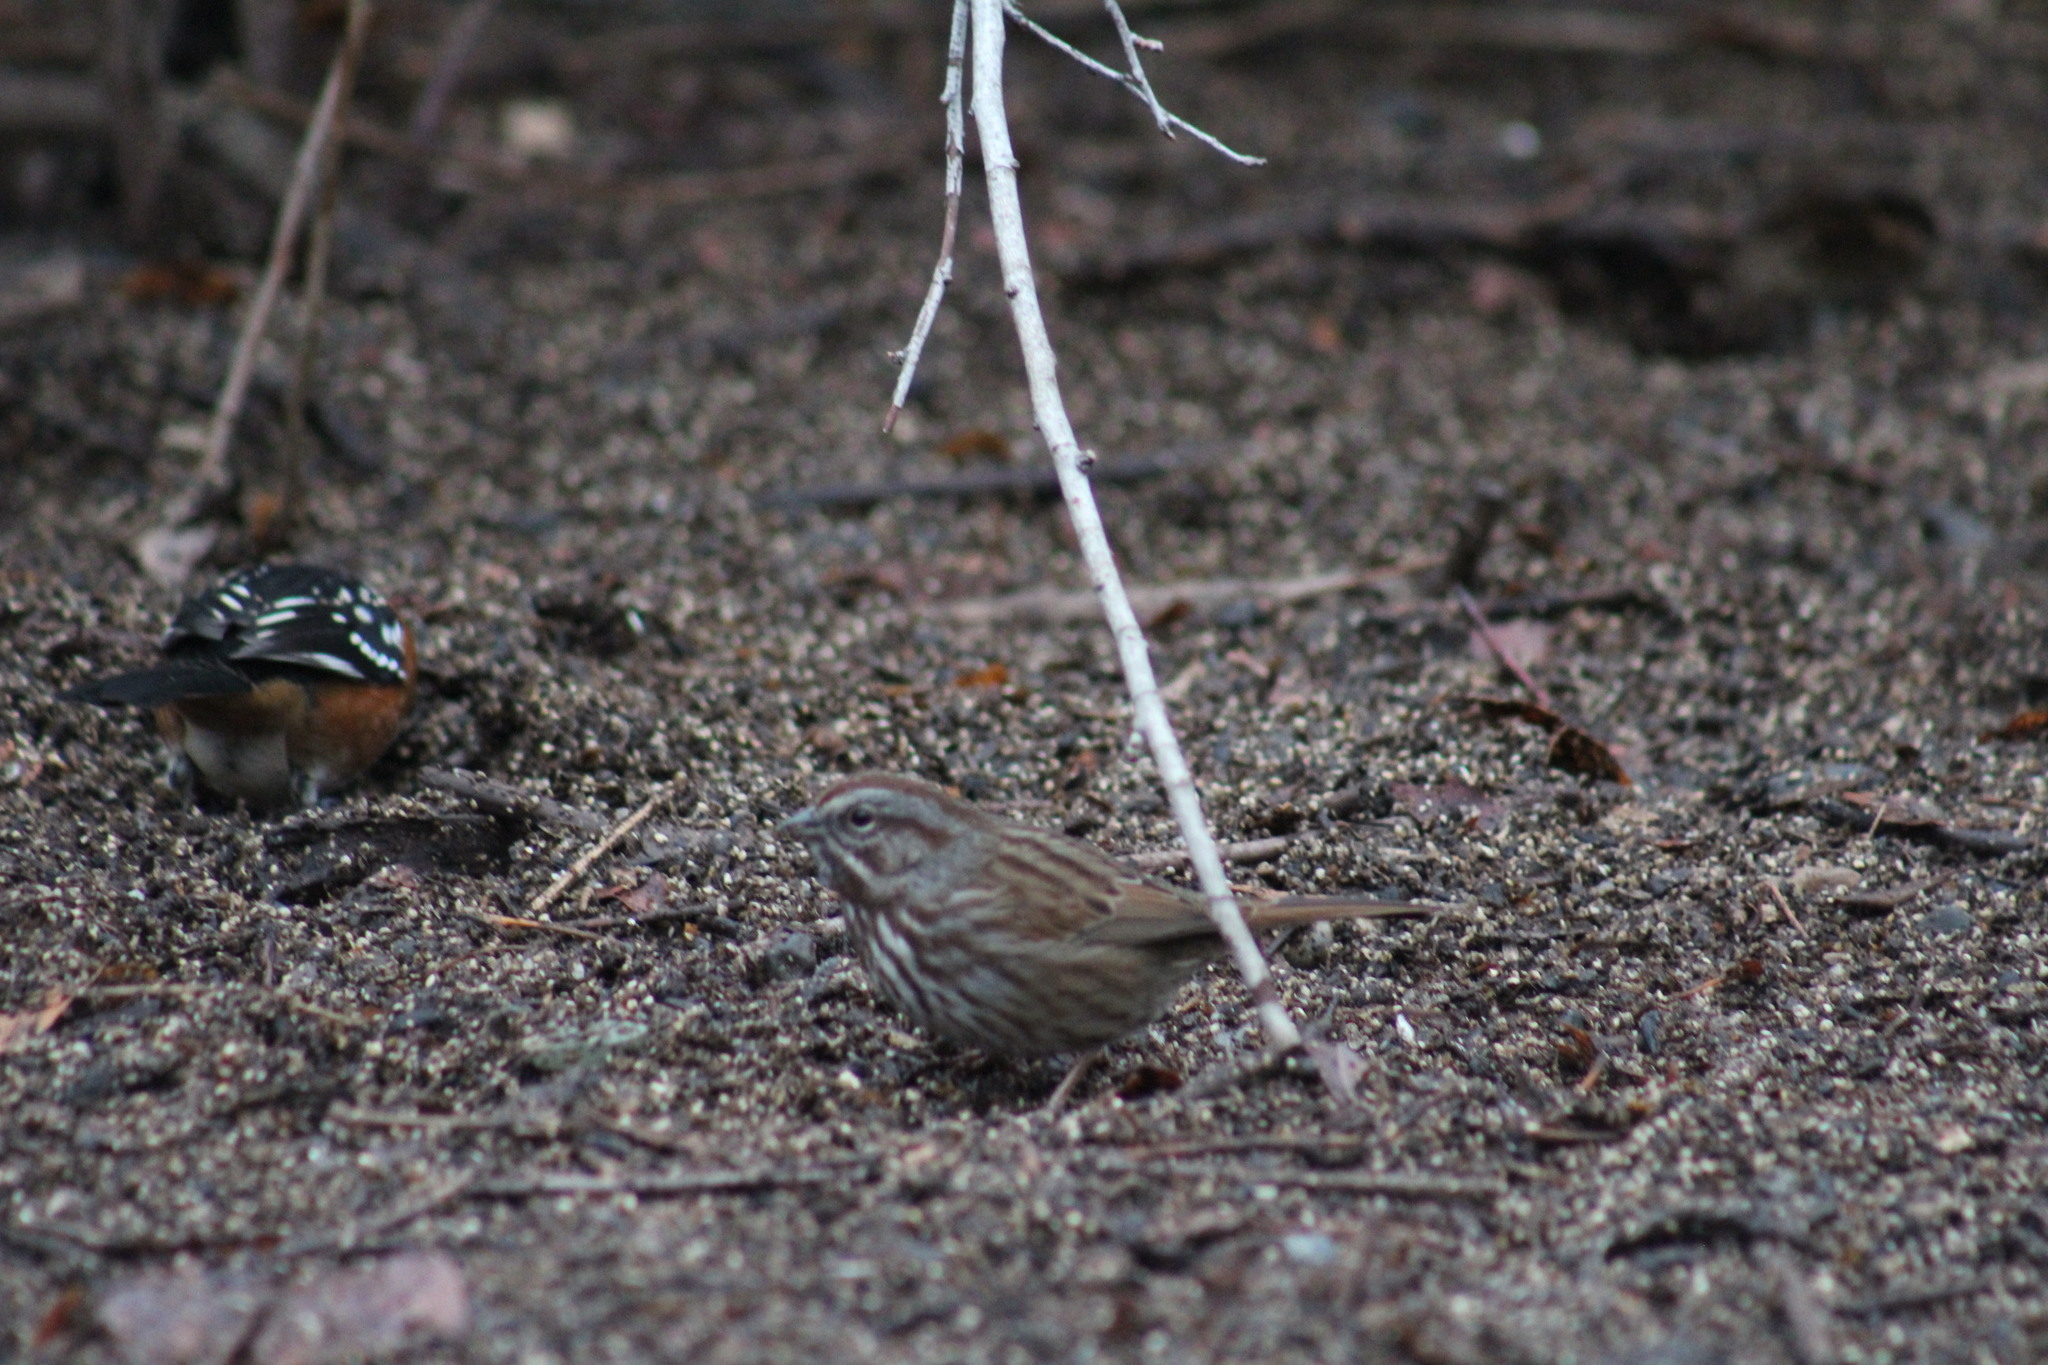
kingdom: Animalia
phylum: Chordata
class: Aves
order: Passeriformes
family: Passerellidae
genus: Melospiza
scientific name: Melospiza melodia
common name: Song sparrow
